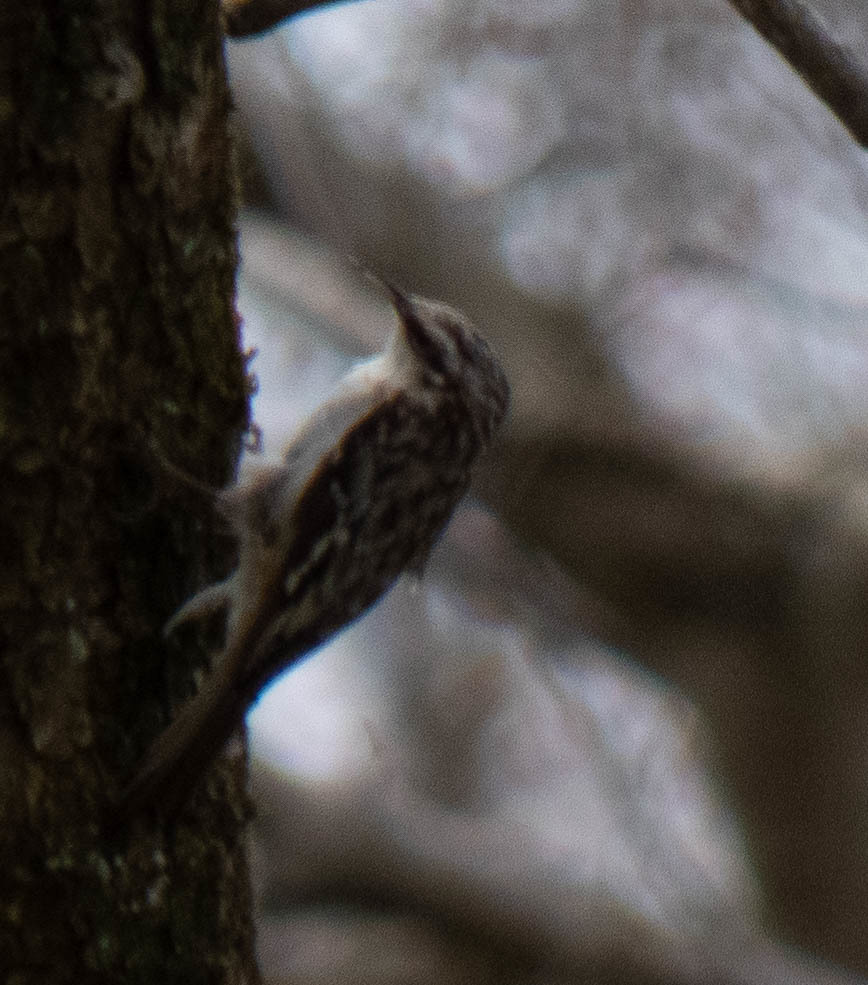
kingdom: Animalia
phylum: Chordata
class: Aves
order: Passeriformes
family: Certhiidae
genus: Certhia
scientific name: Certhia americana
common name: Brown creeper
